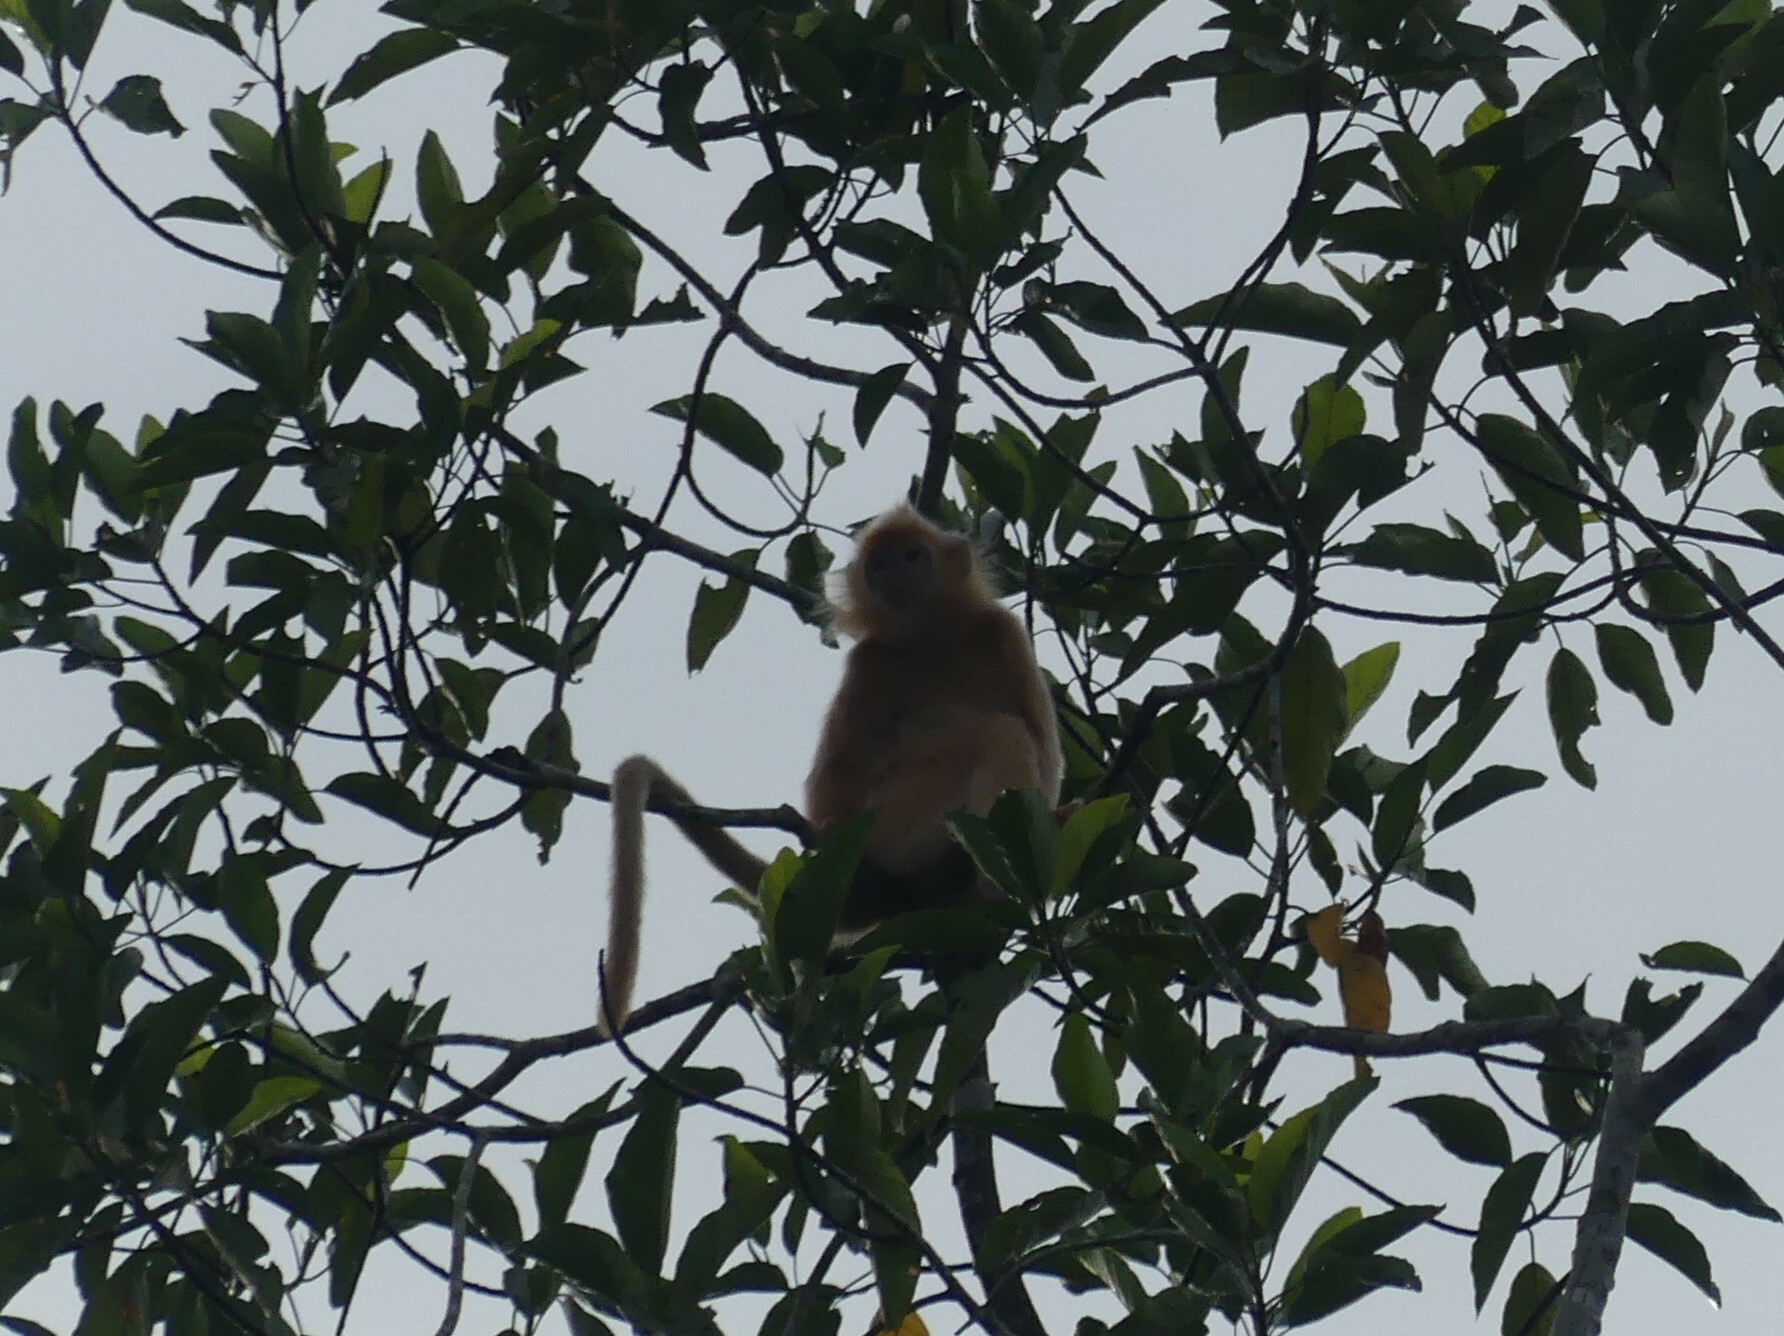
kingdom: Animalia
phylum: Chordata
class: Mammalia
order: Primates
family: Cercopithecidae
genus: Trachypithecus
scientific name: Trachypithecus cristatus
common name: Silvery lutung
